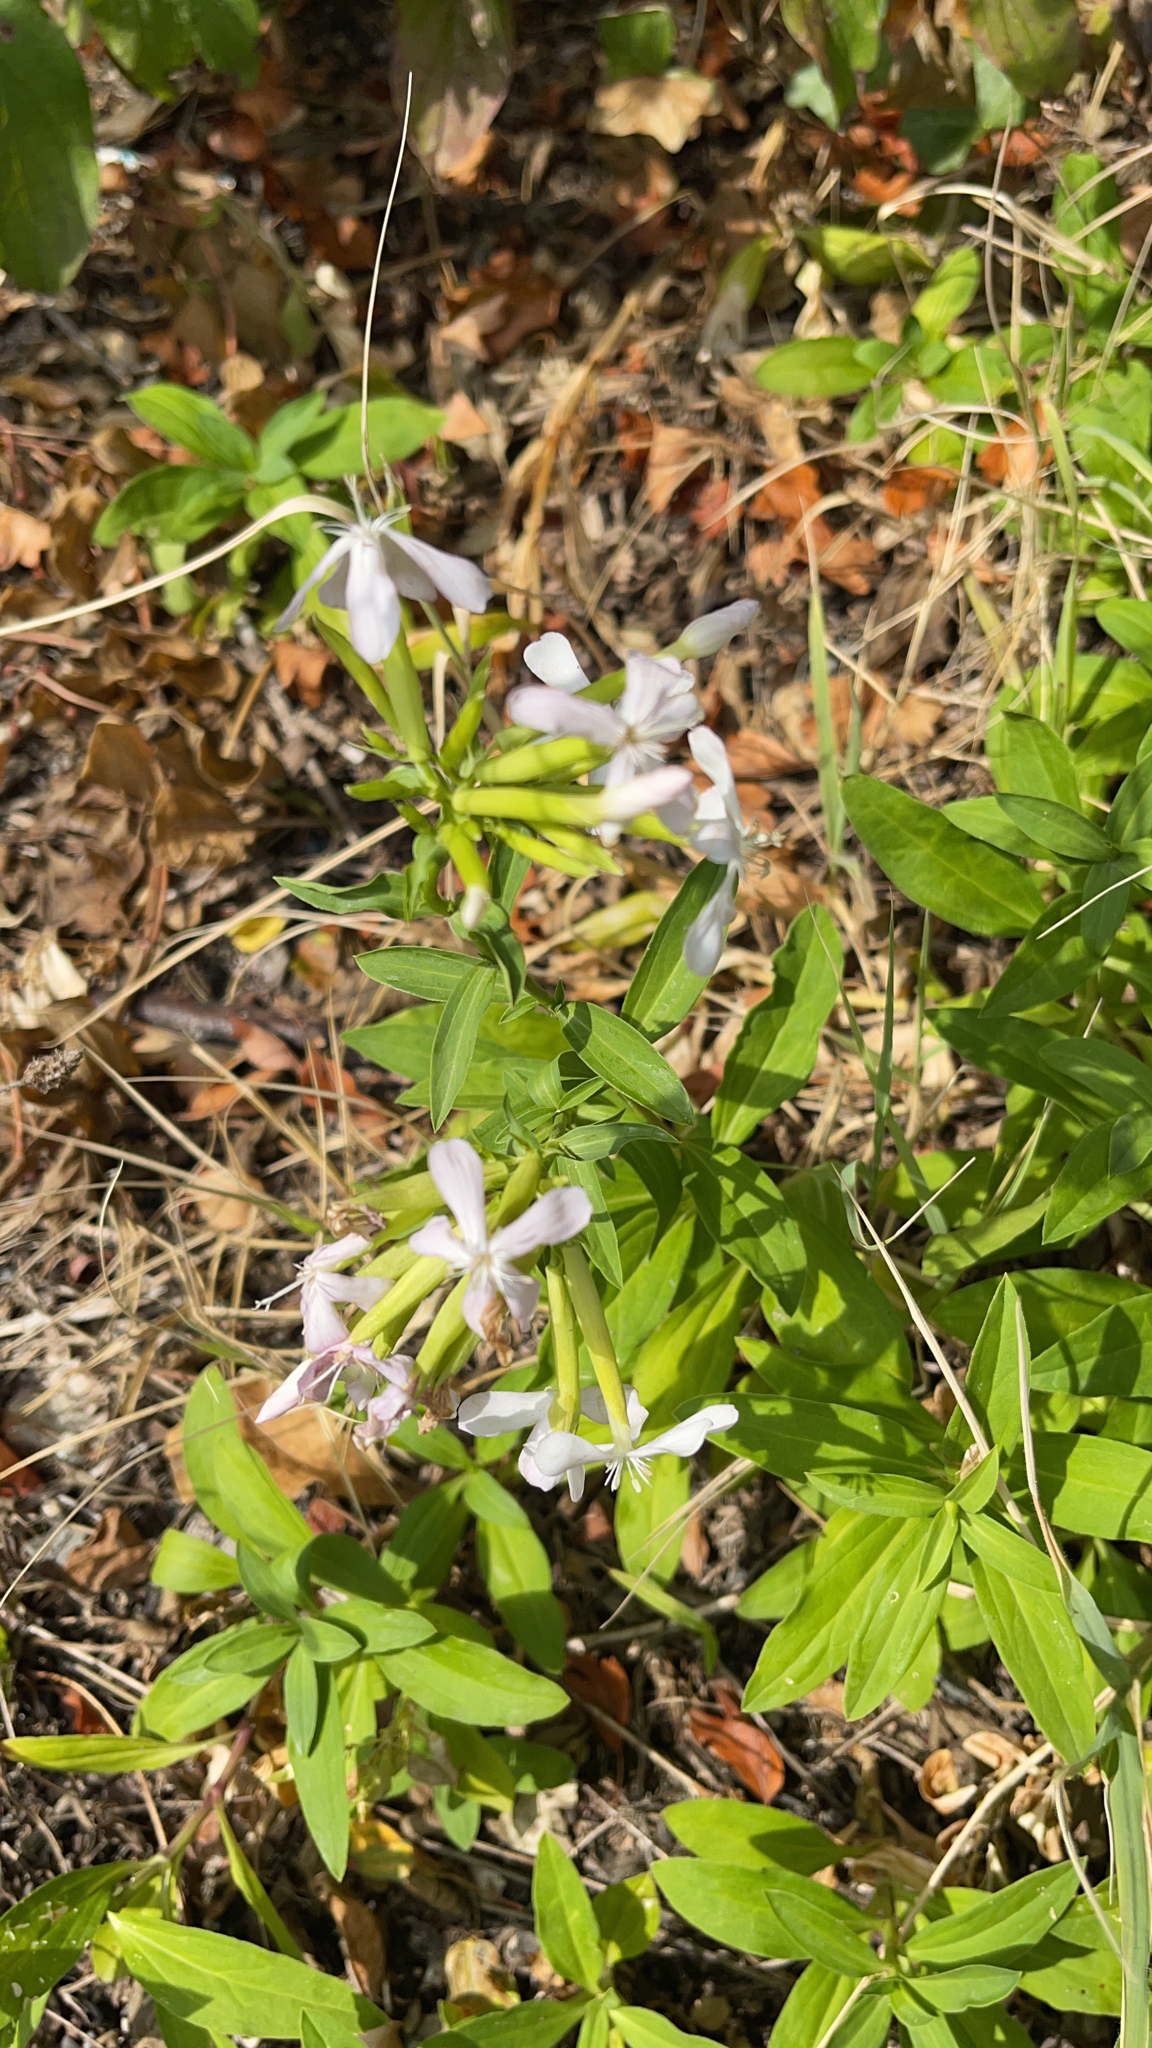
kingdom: Plantae
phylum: Tracheophyta
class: Magnoliopsida
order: Caryophyllales
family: Caryophyllaceae
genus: Saponaria
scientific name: Saponaria officinalis
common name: Soapwort
